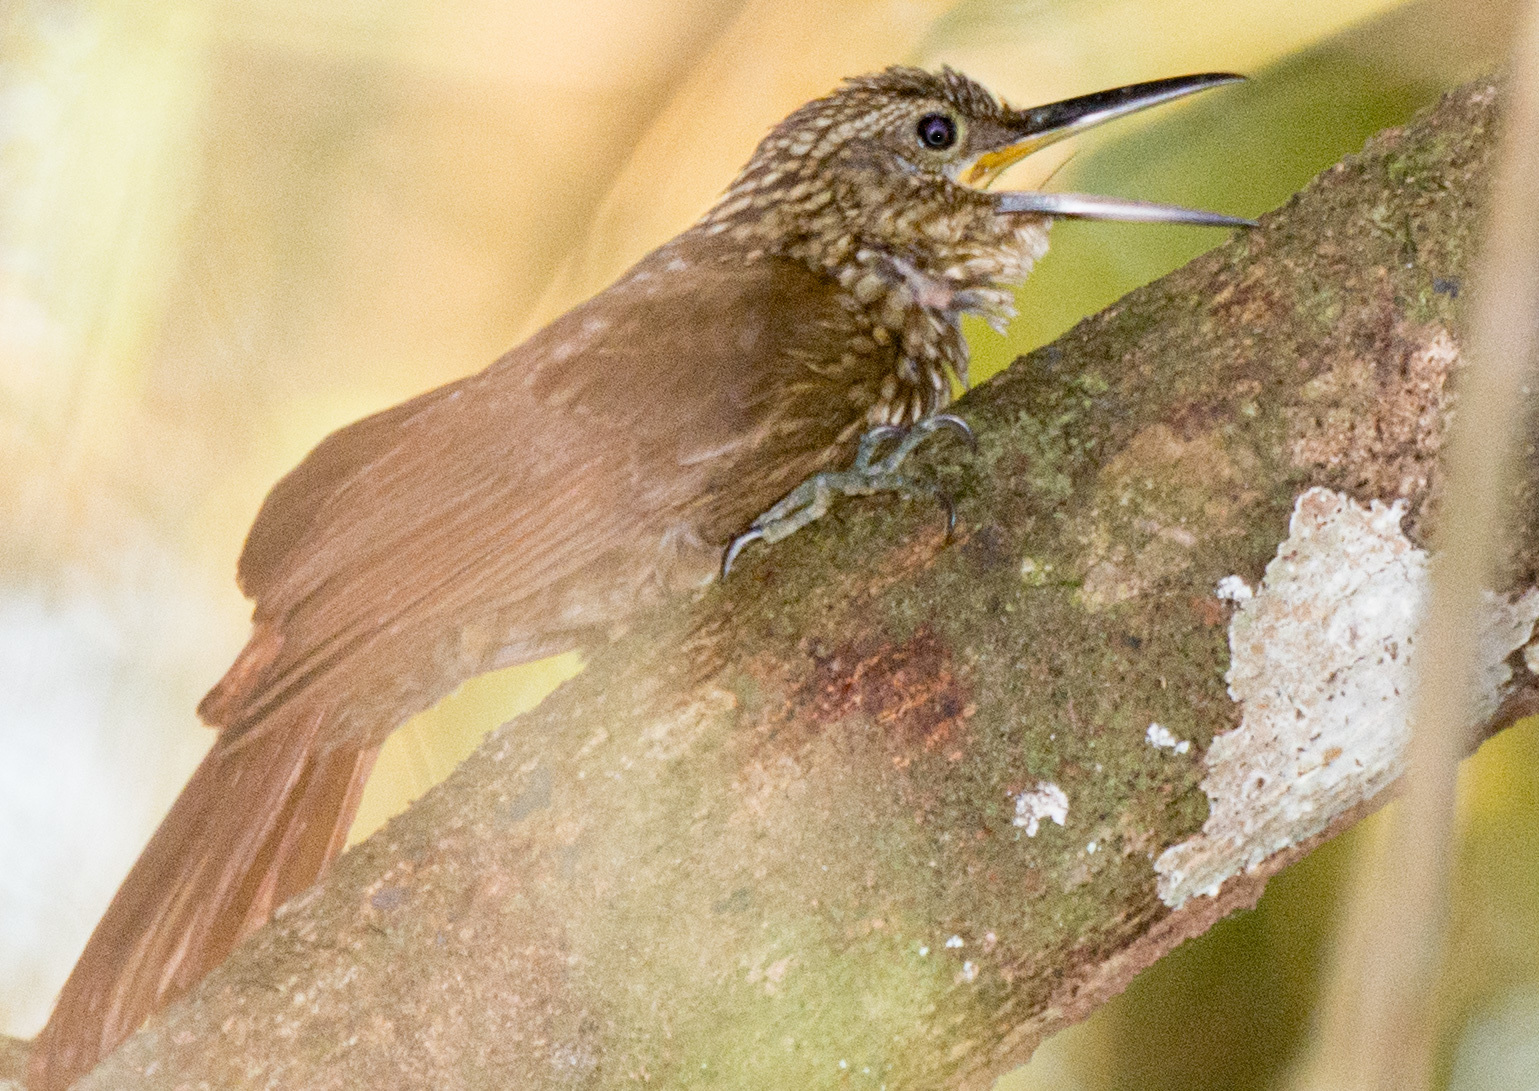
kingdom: Animalia
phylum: Chordata
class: Aves
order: Passeriformes
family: Furnariidae
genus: Xiphorhynchus
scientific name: Xiphorhynchus susurrans
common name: Cocoa woodcreeper
